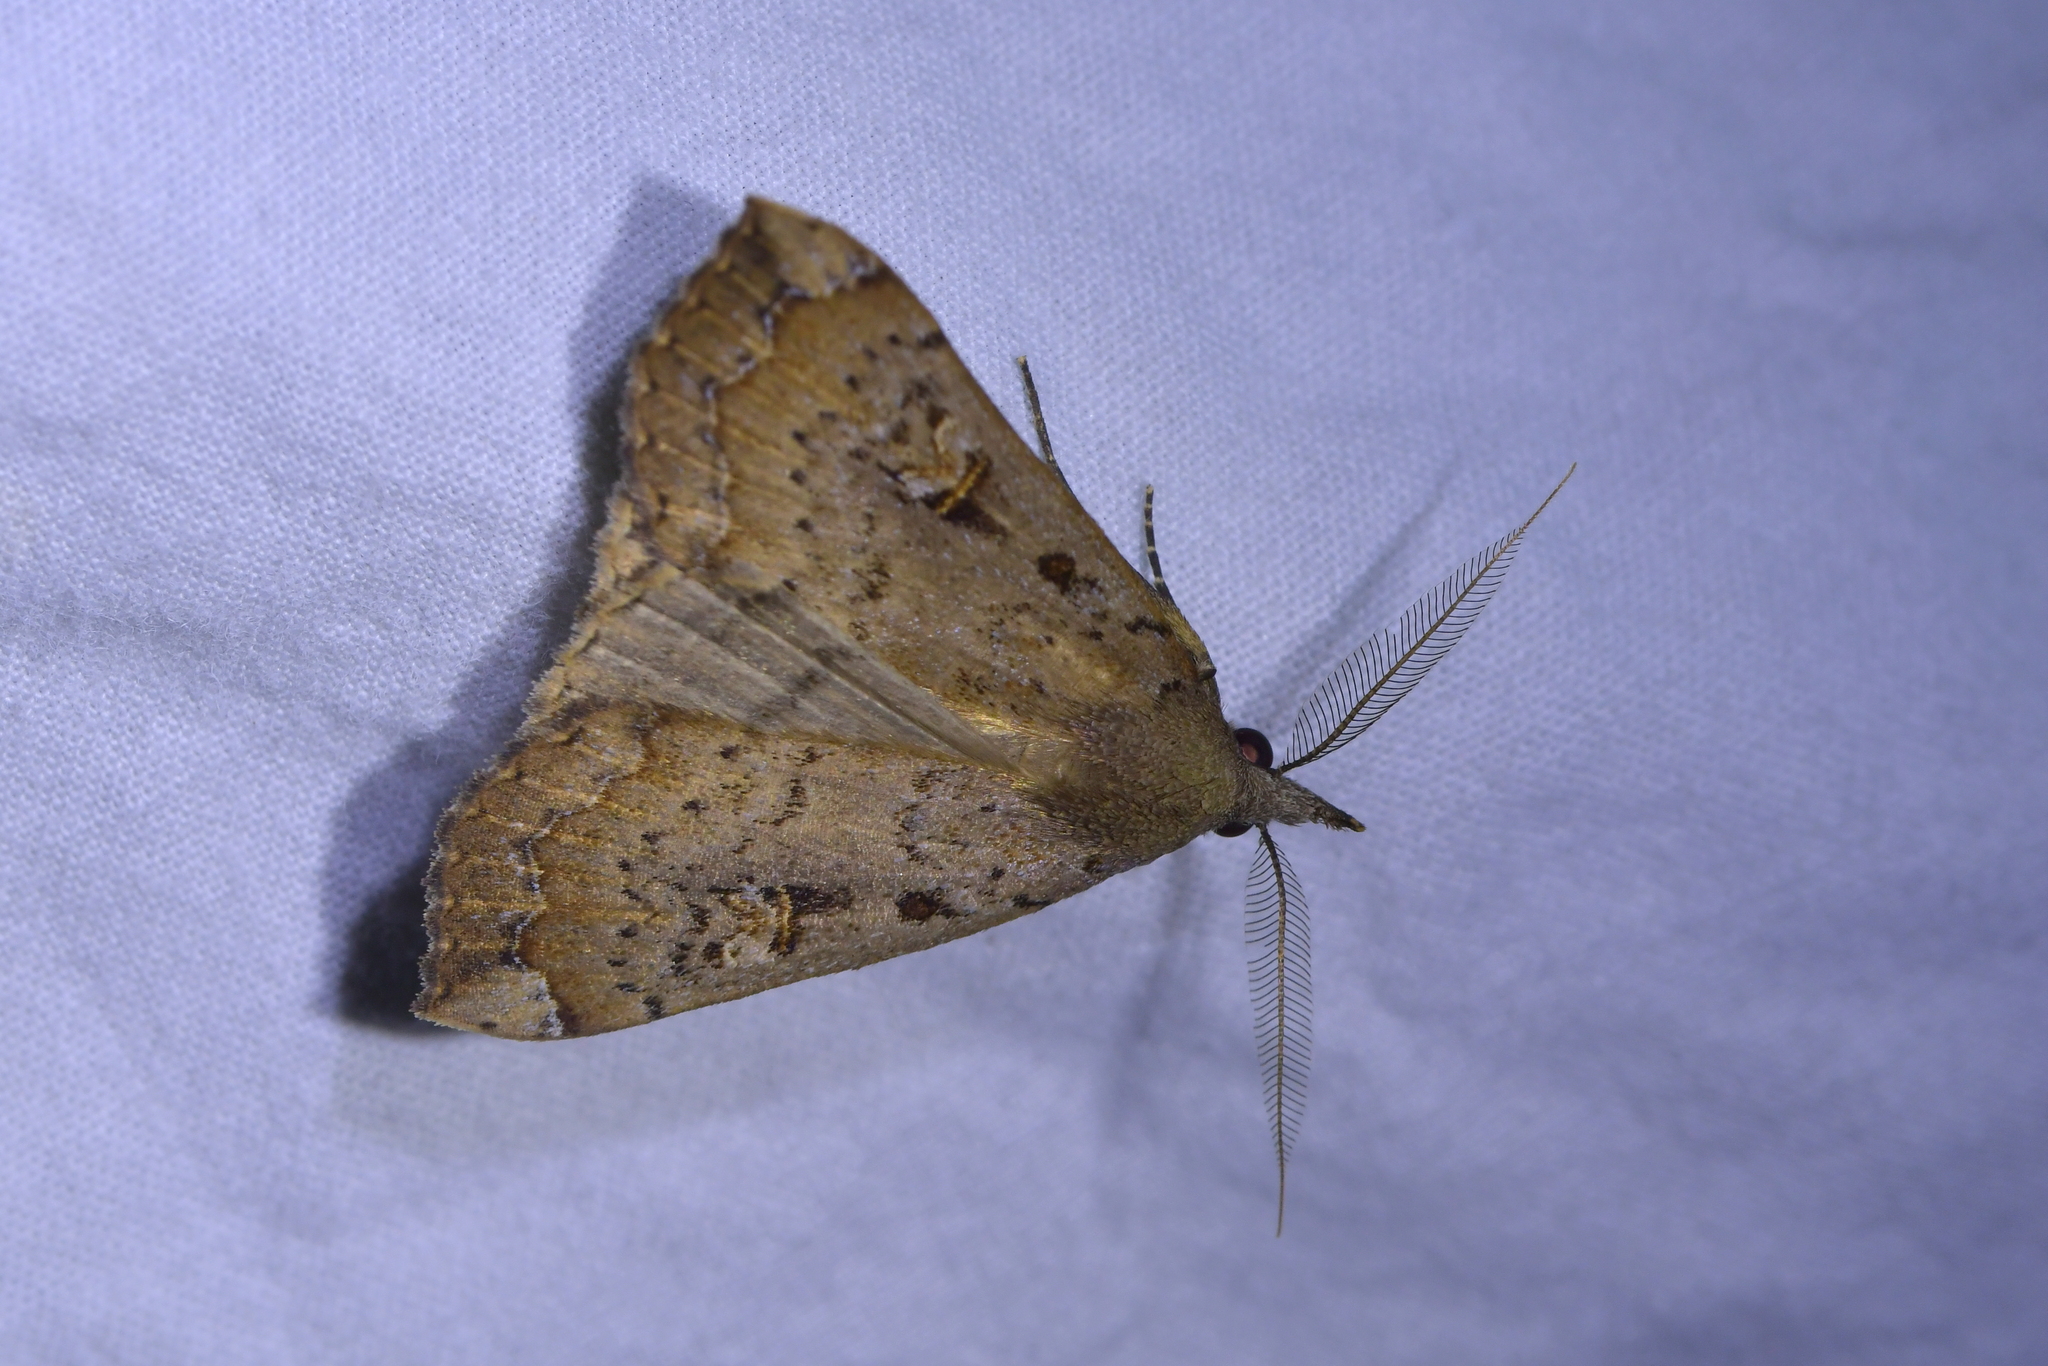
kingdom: Animalia
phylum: Arthropoda
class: Insecta
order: Lepidoptera
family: Erebidae
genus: Rhapsa
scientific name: Rhapsa scotosialis
